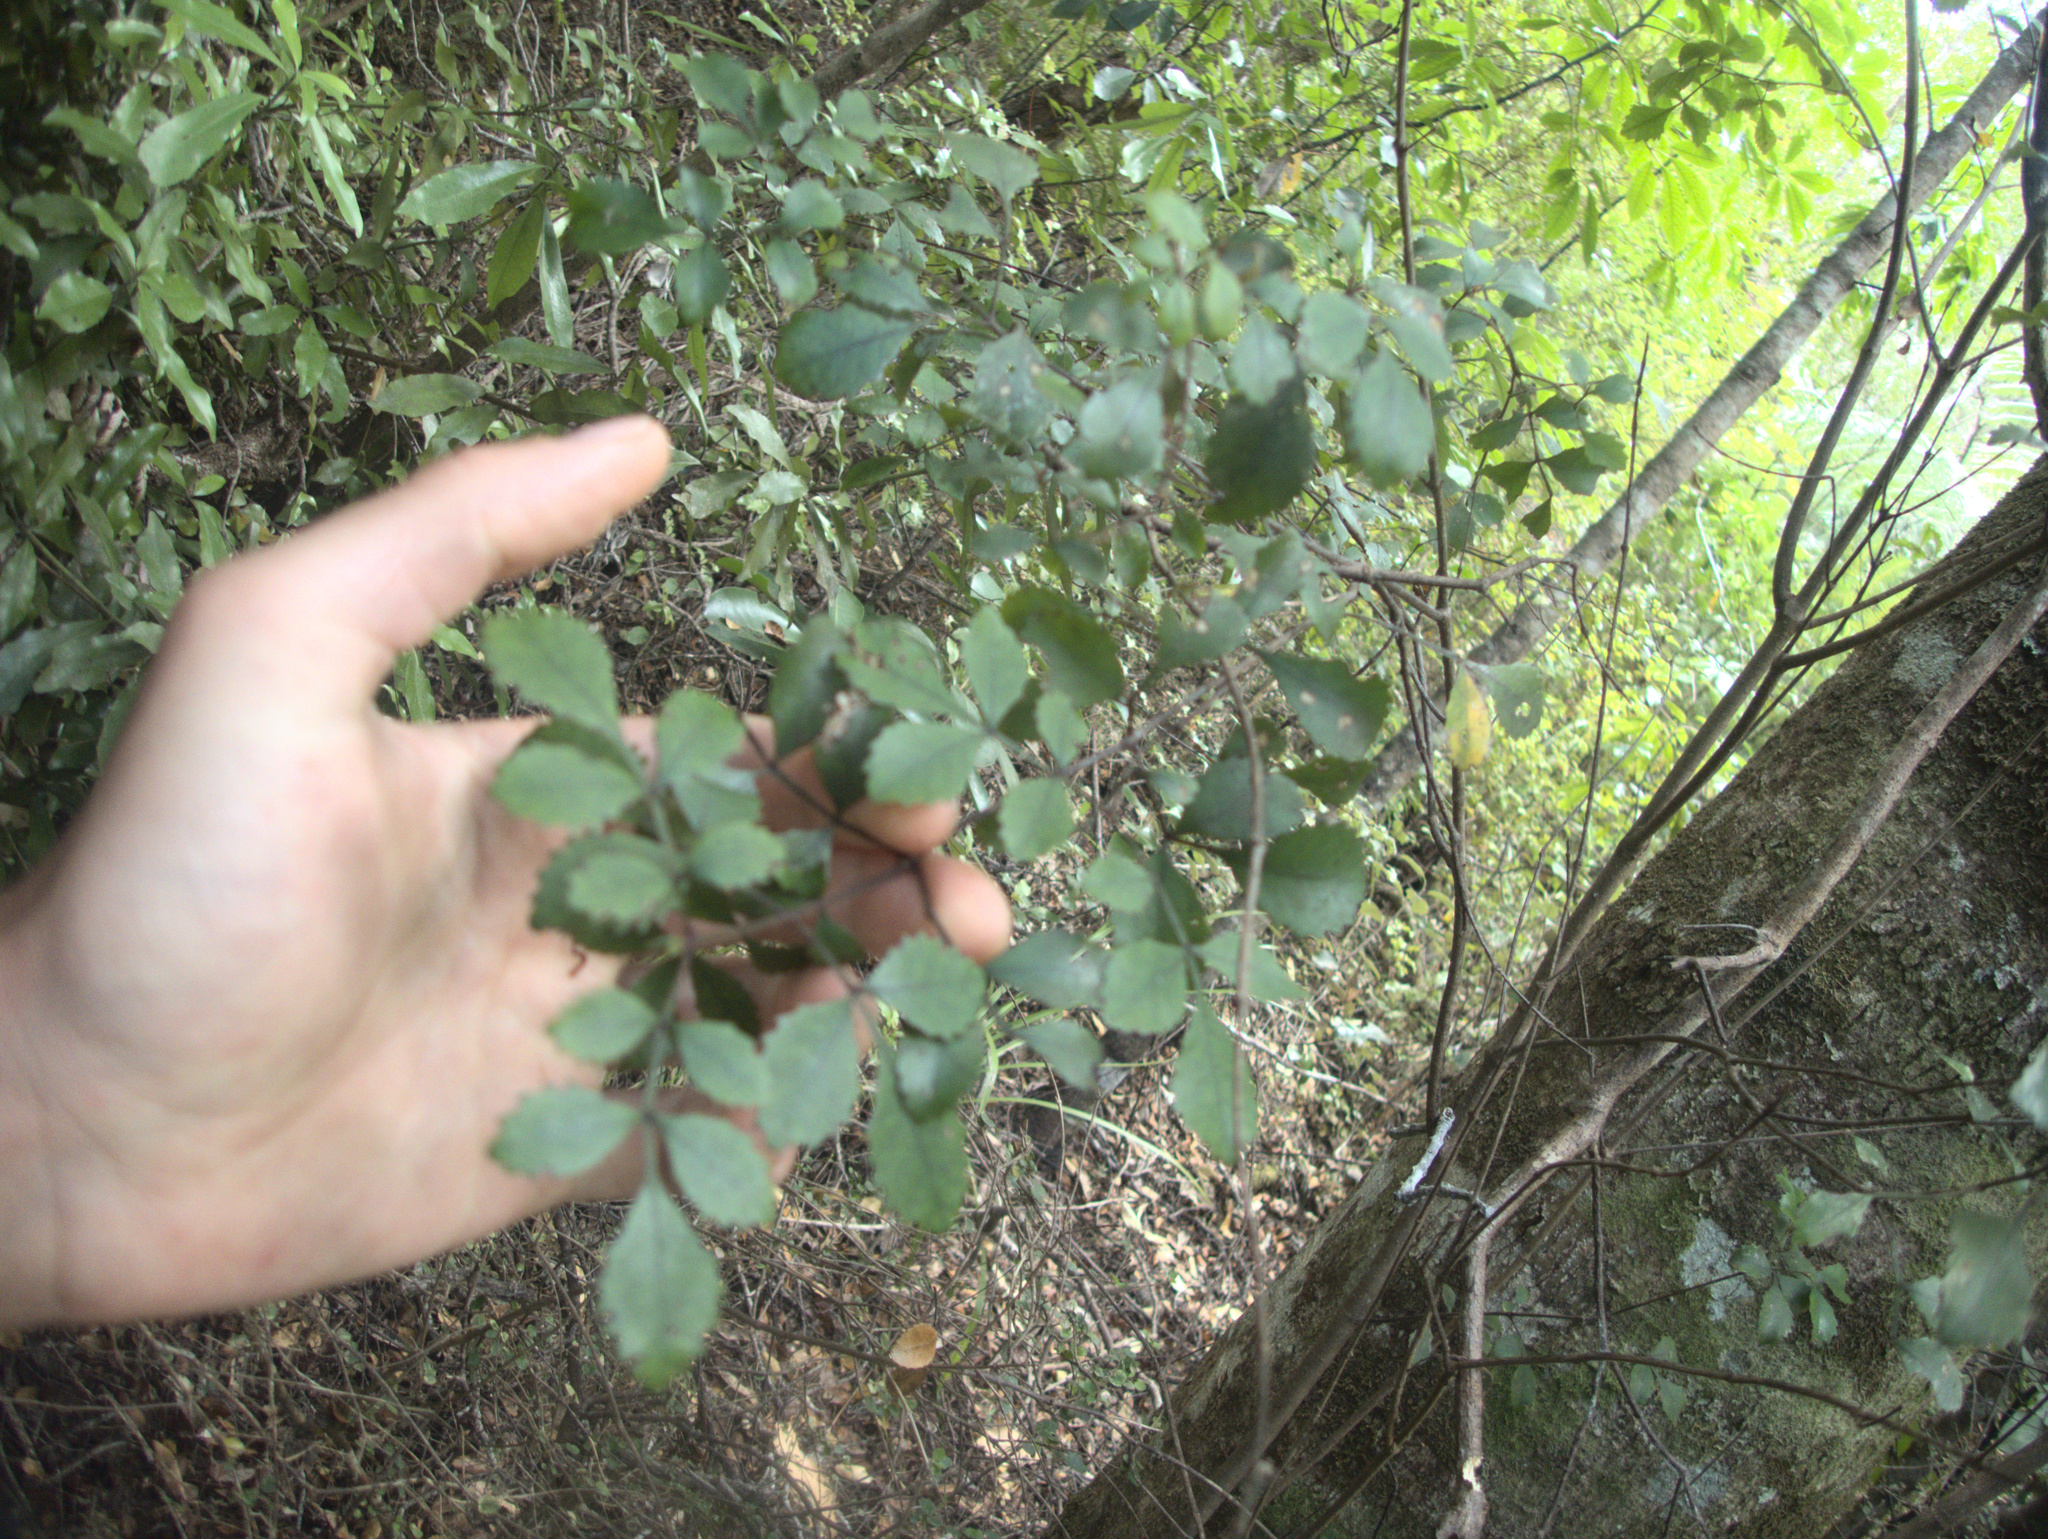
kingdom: Plantae
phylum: Tracheophyta
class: Magnoliopsida
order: Oxalidales
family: Cunoniaceae
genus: Pterophylla
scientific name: Pterophylla sylvicola
